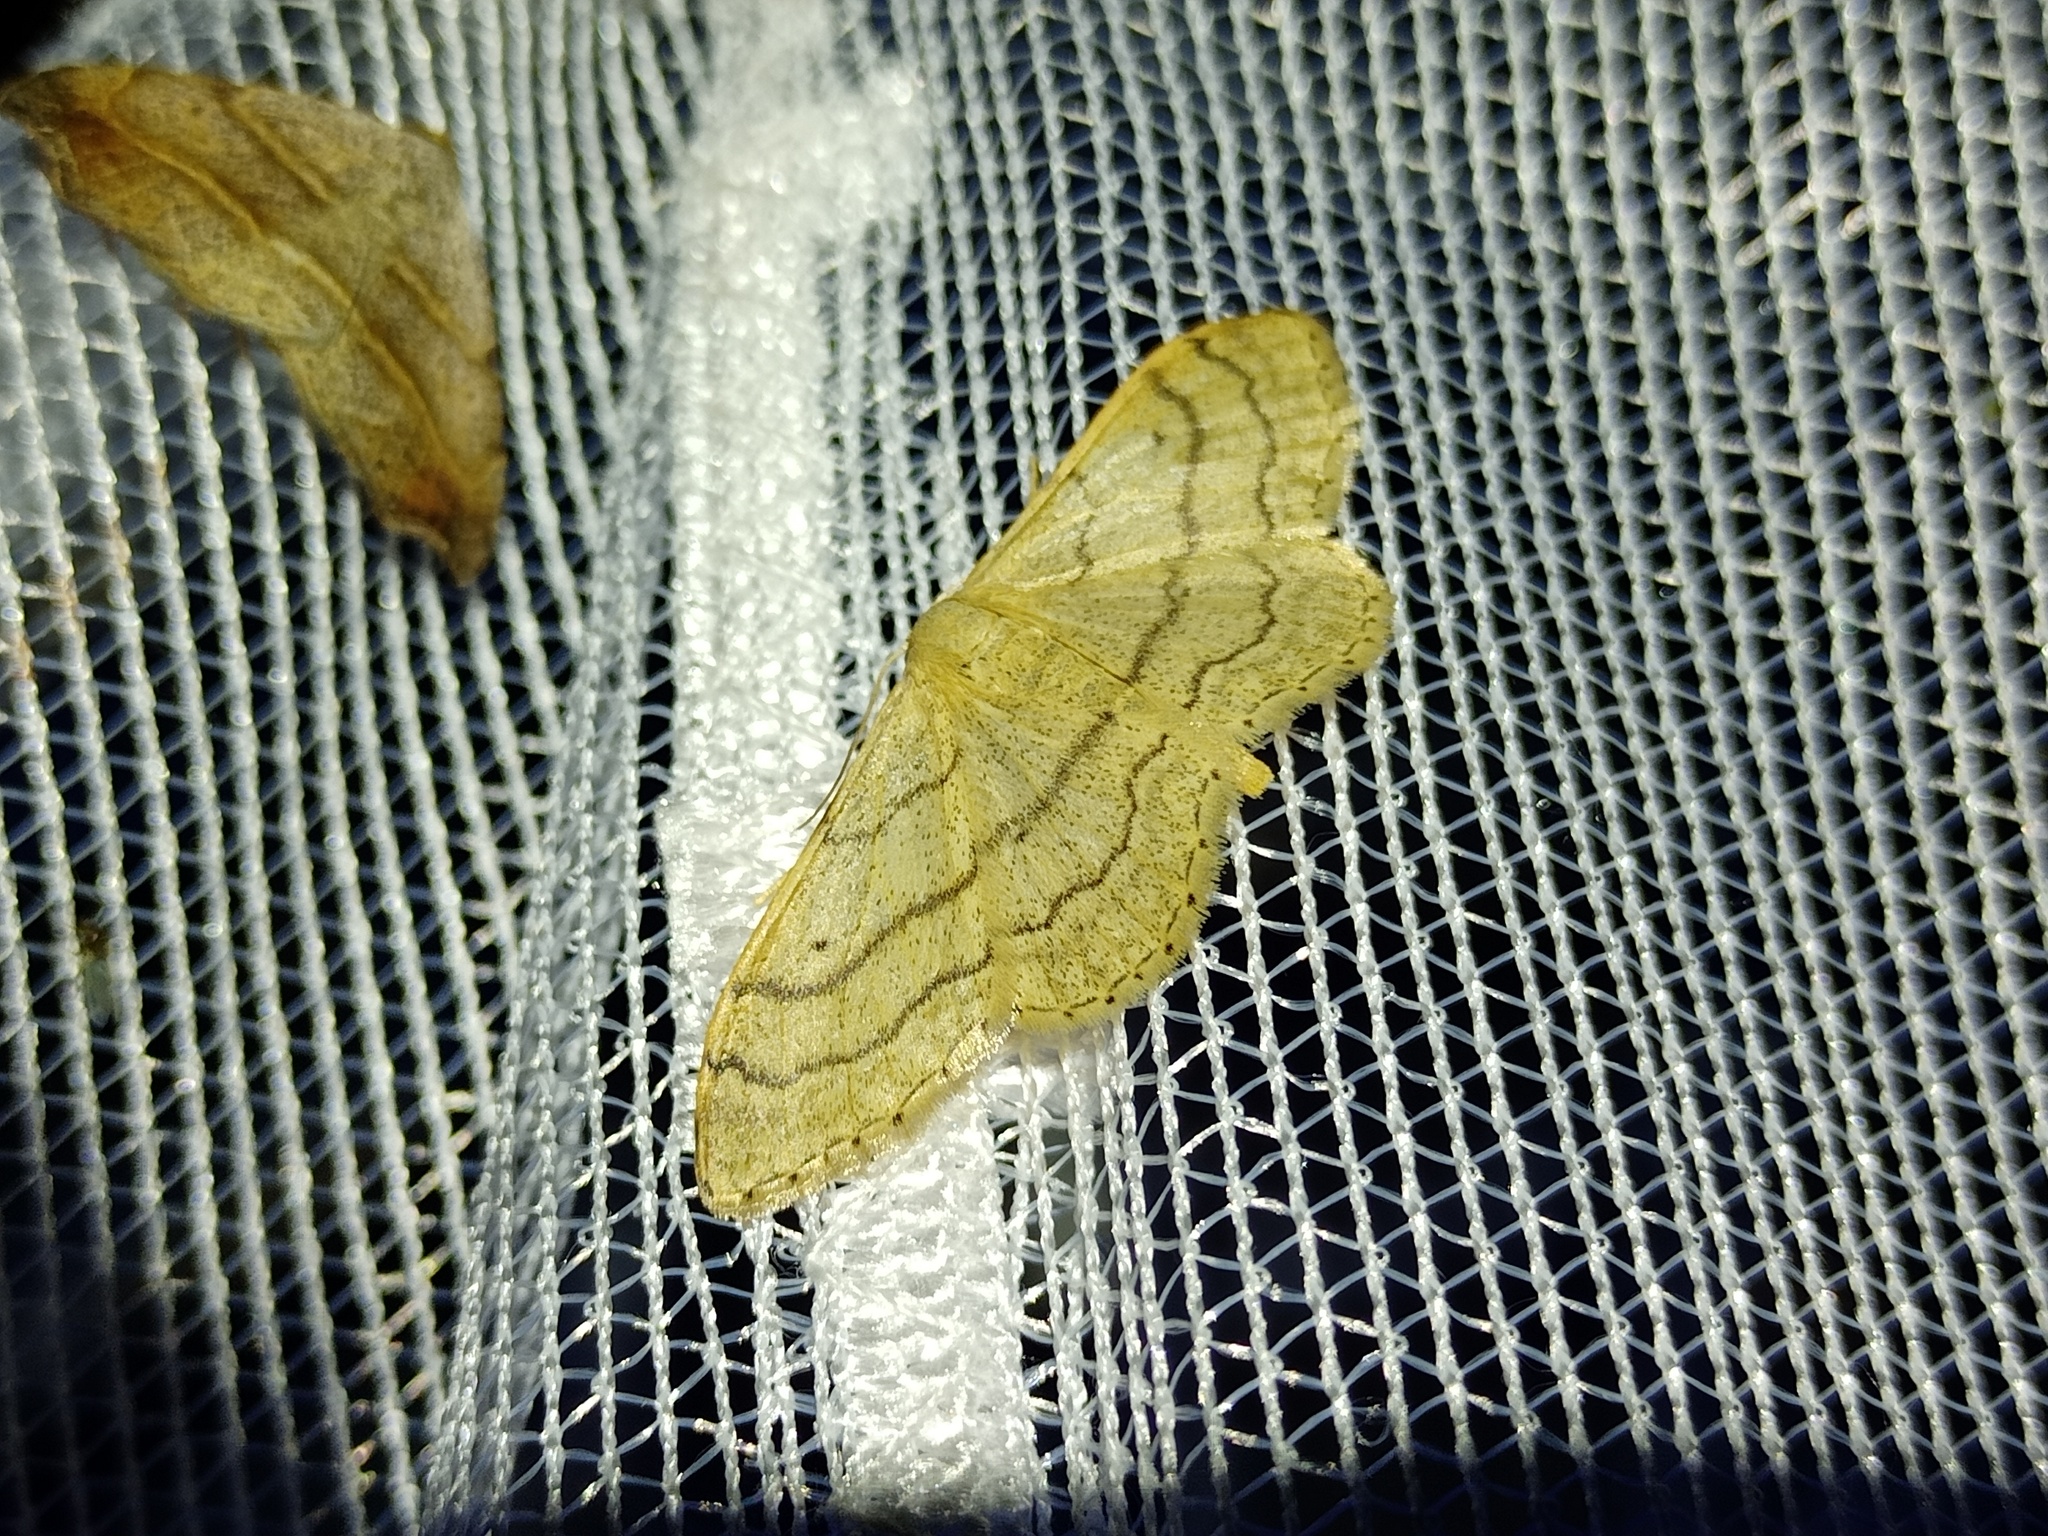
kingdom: Animalia
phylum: Arthropoda
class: Insecta
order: Lepidoptera
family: Geometridae
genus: Idaea
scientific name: Idaea aversata
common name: Riband wave
